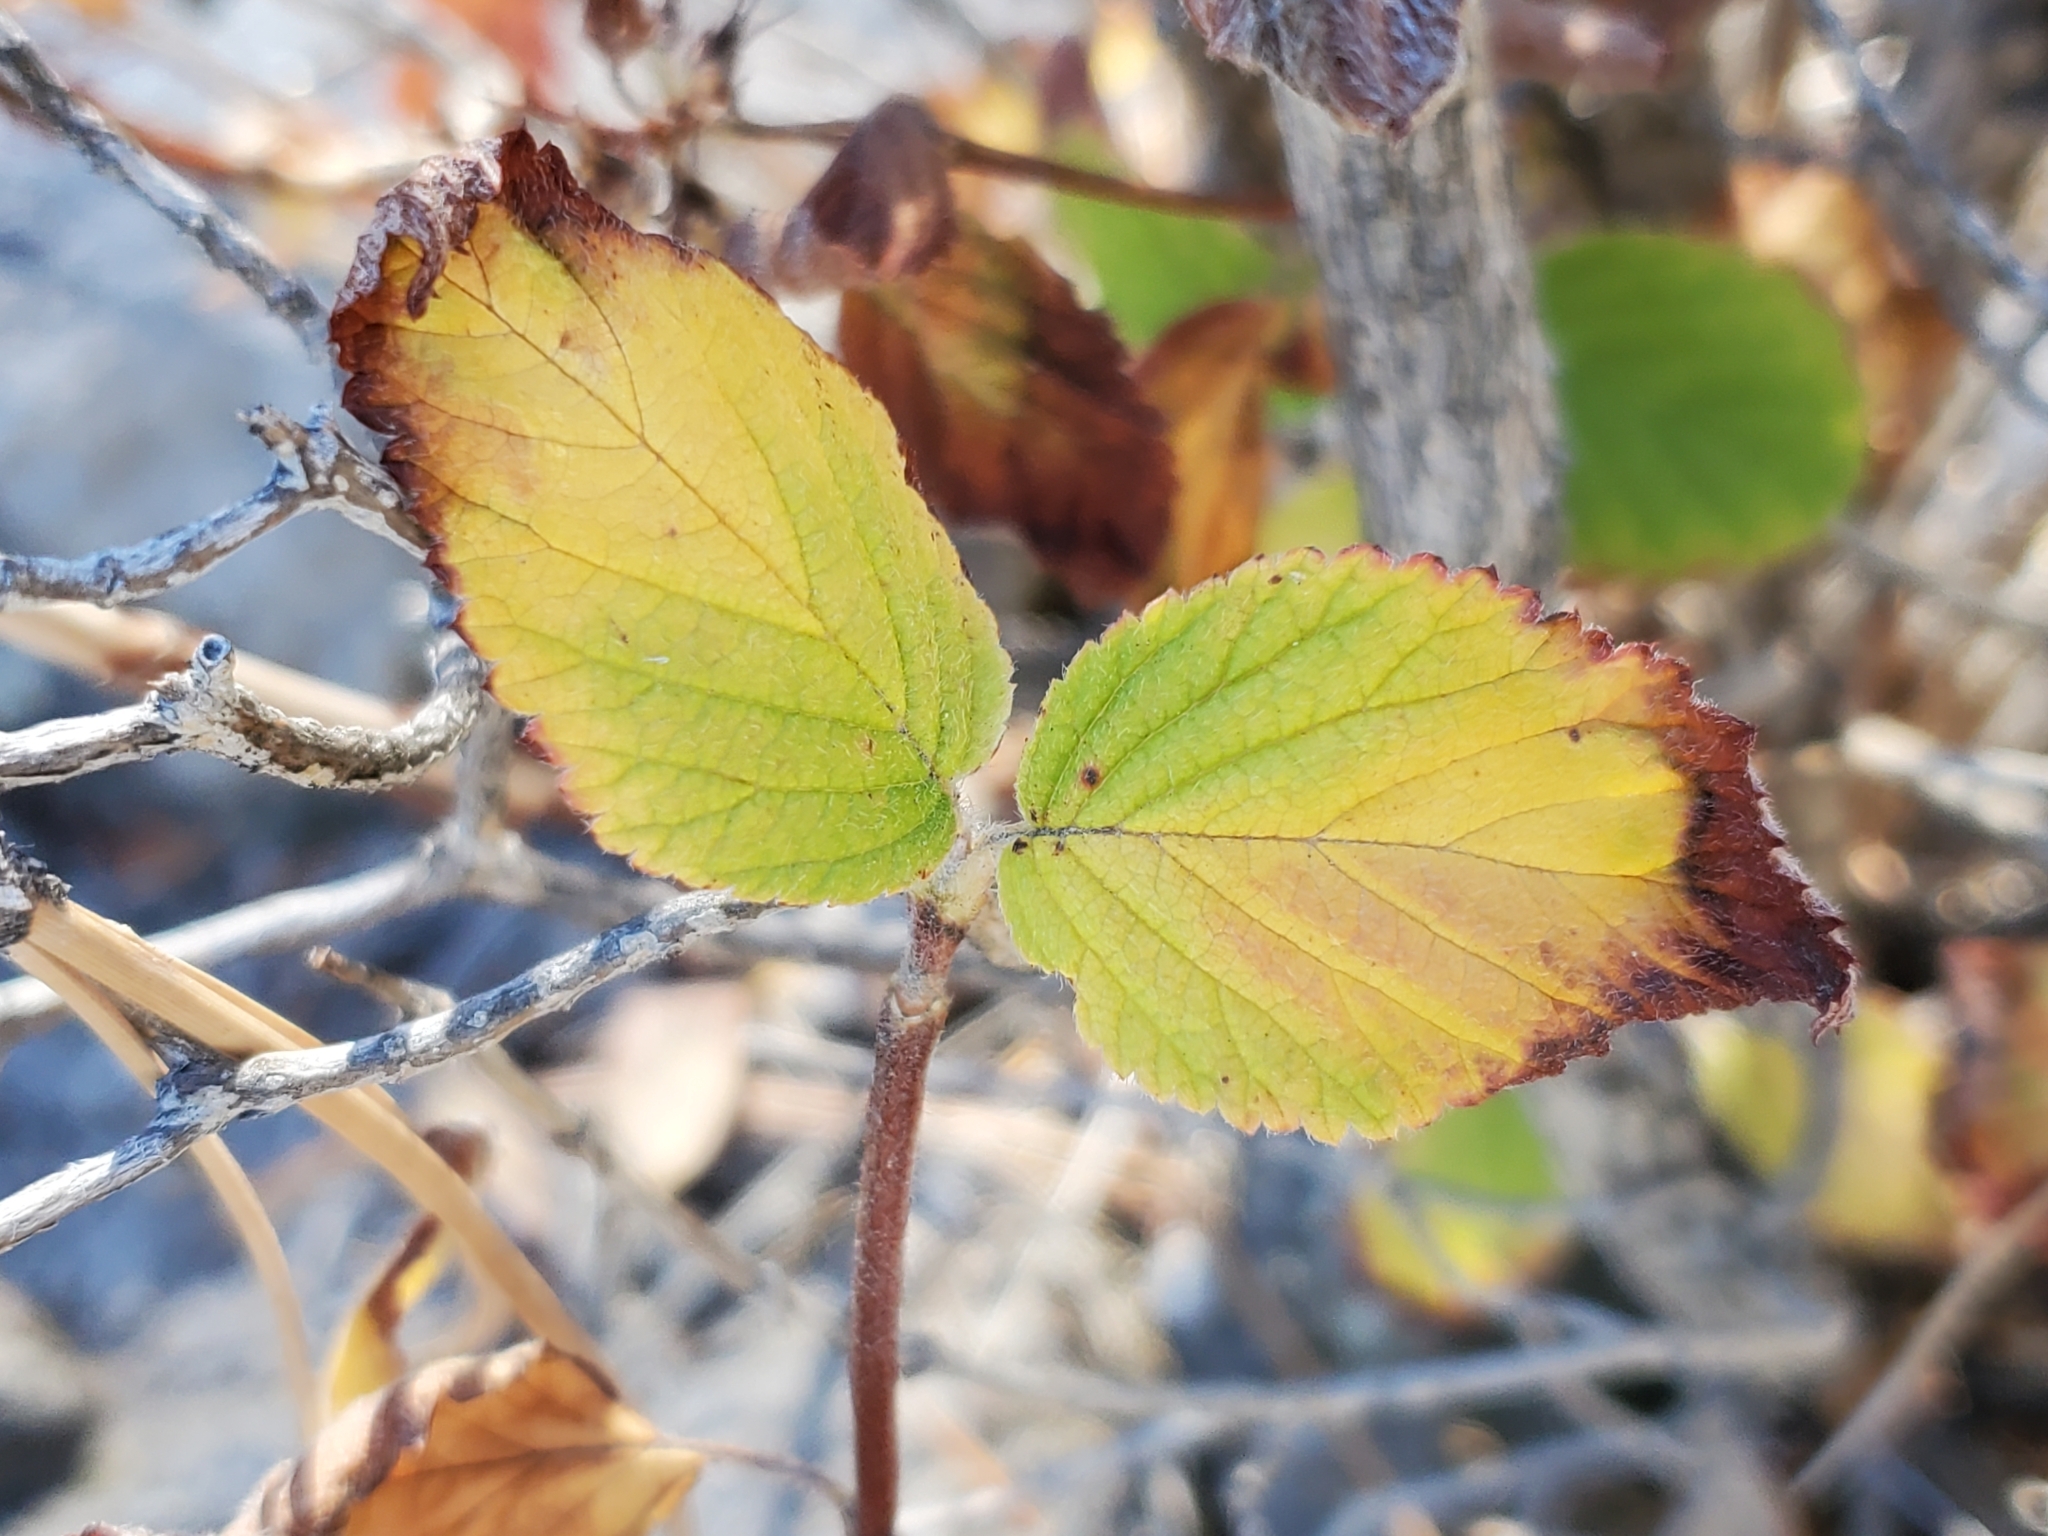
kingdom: Plantae
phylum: Tracheophyta
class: Magnoliopsida
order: Cornales
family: Hydrangeaceae
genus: Jamesia
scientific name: Jamesia americana
